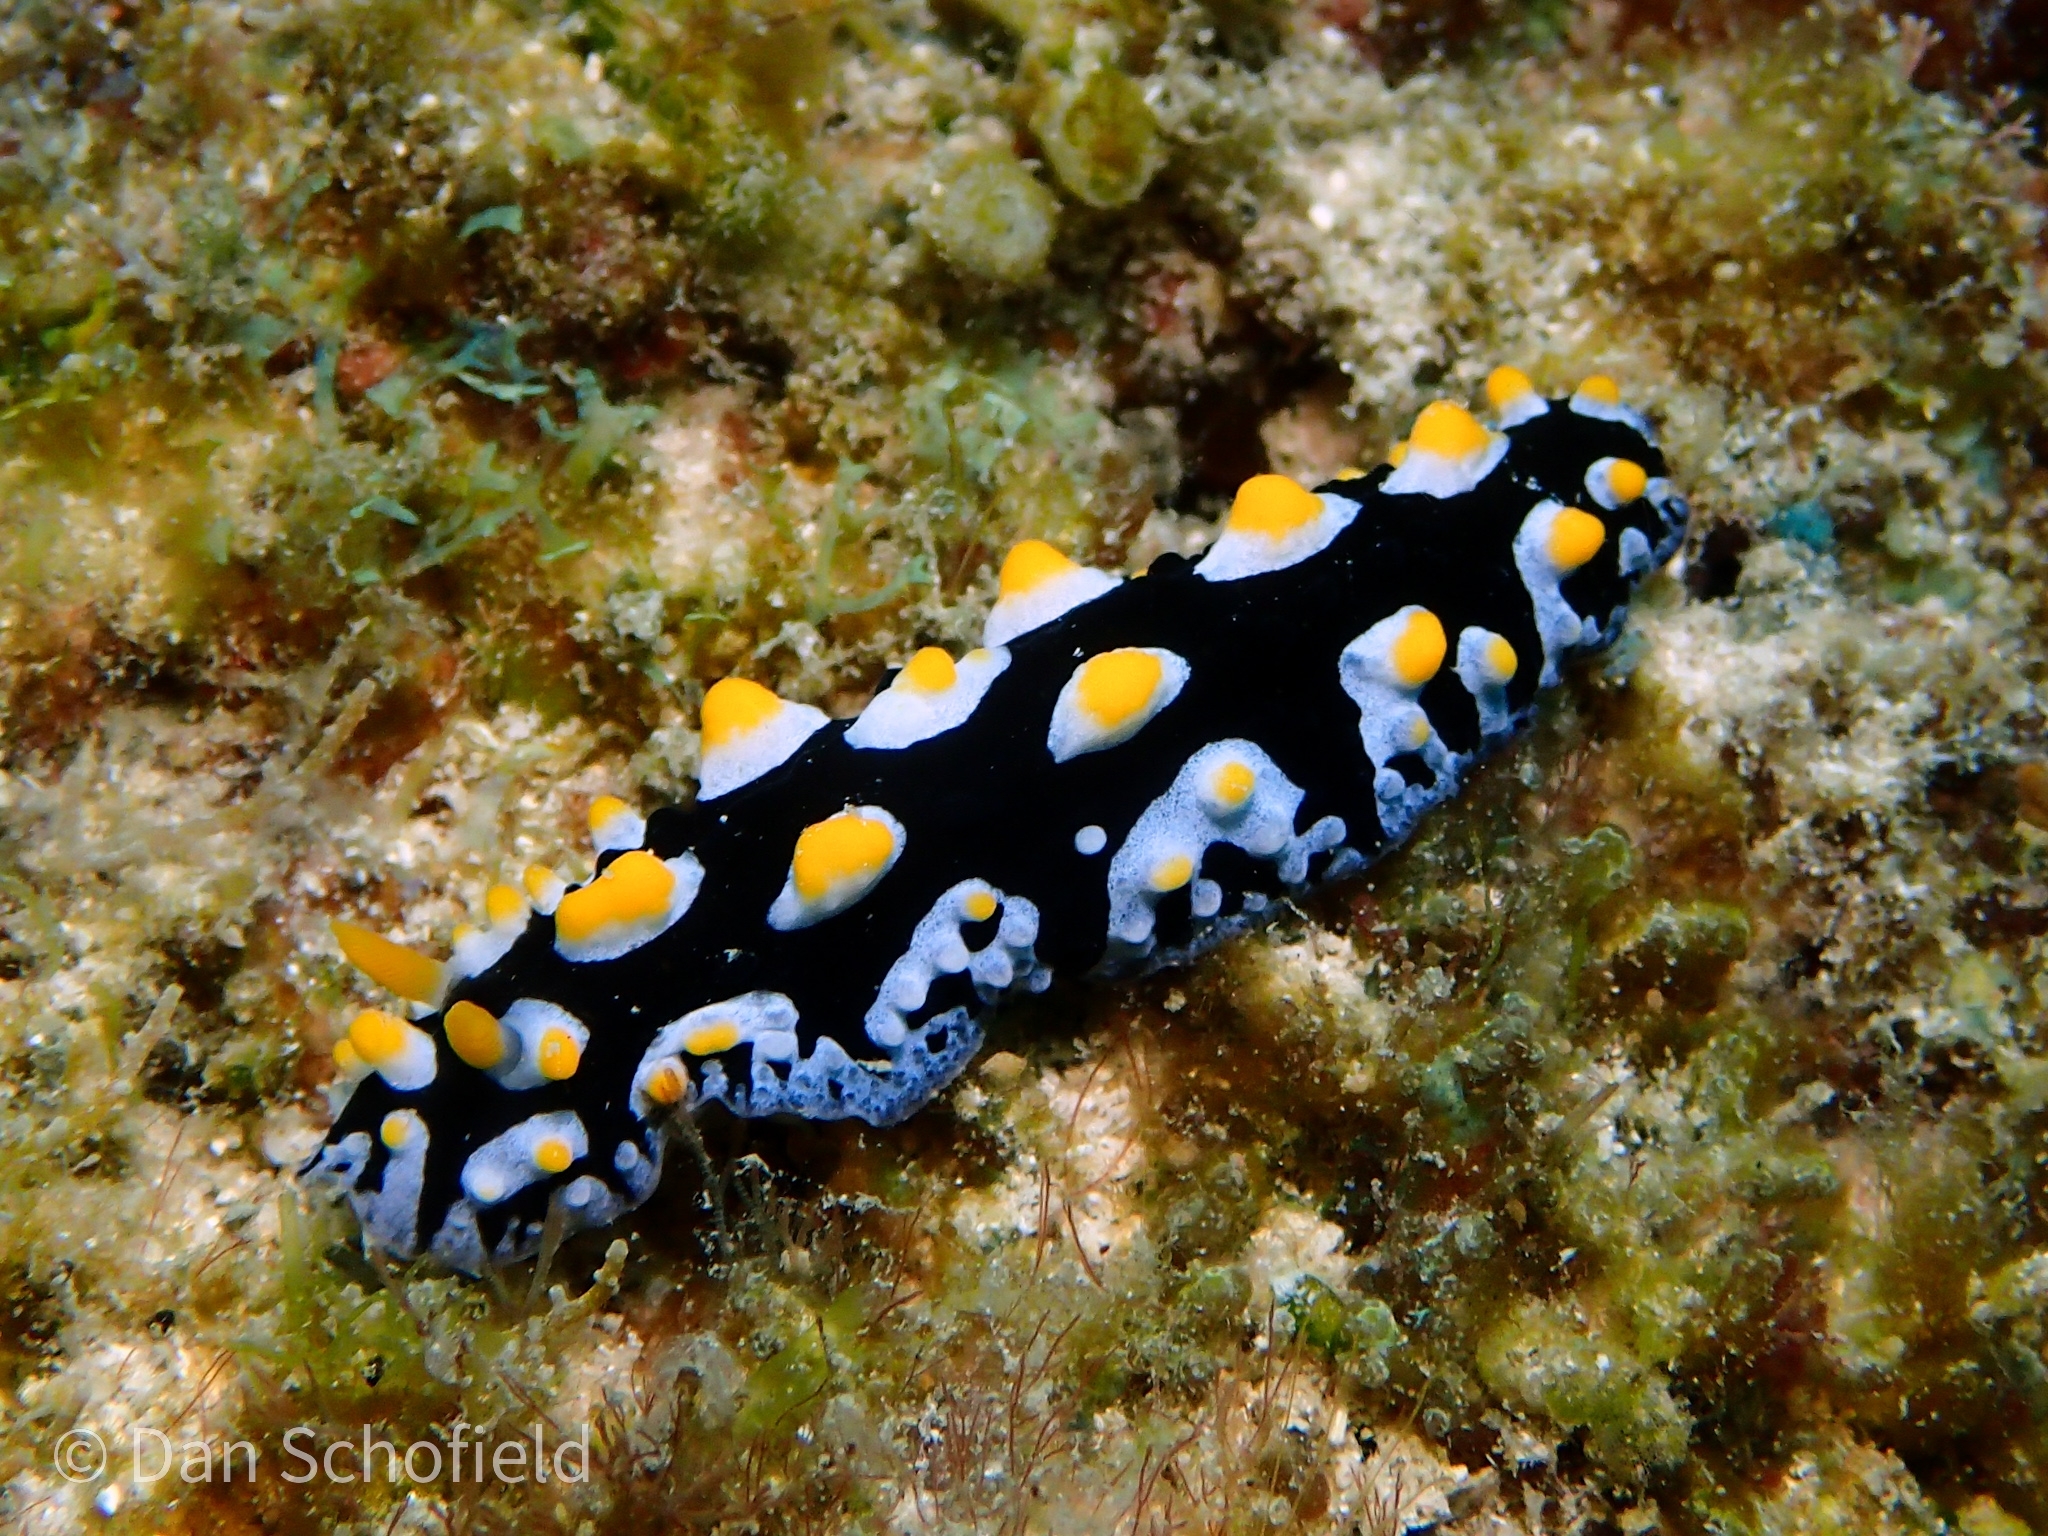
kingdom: Animalia
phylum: Mollusca
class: Gastropoda
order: Nudibranchia
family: Phyllidiidae
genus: Phyllidia
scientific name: Phyllidia picta
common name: Black-rayed phyllidia
